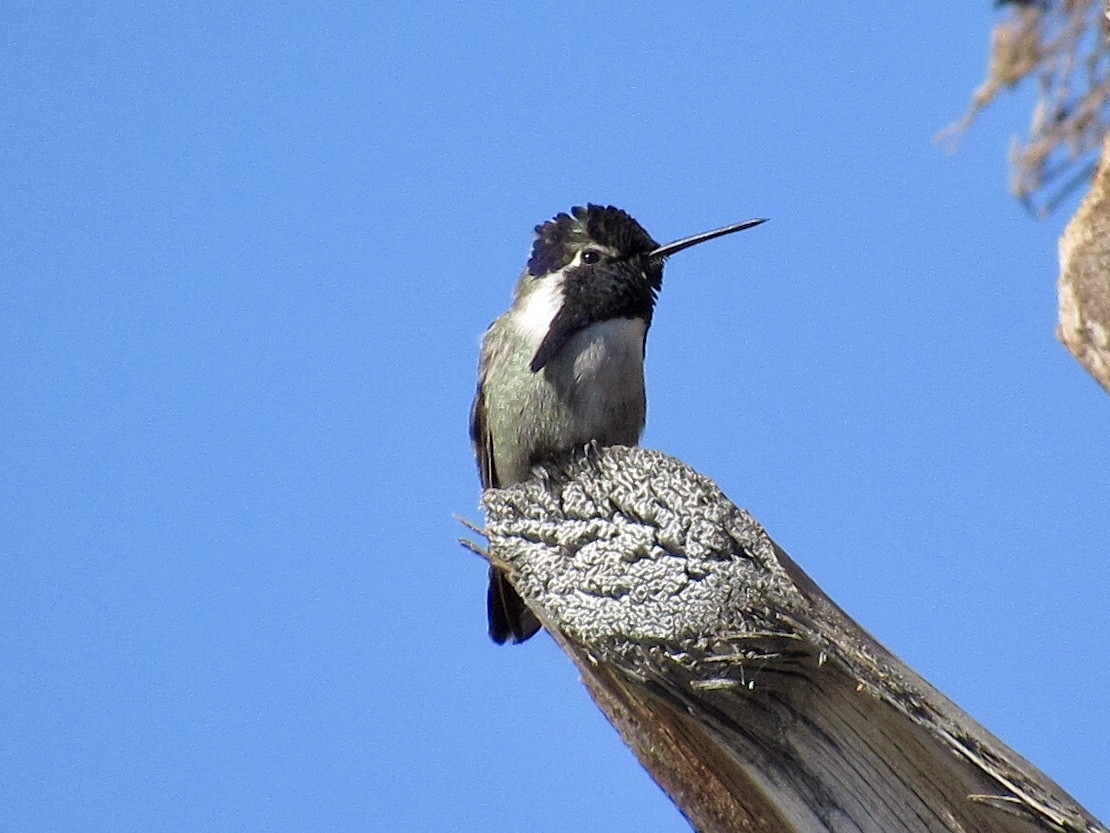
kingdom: Animalia
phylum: Chordata
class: Aves
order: Apodiformes
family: Trochilidae
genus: Calypte
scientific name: Calypte costae
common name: Costa's hummingbird
